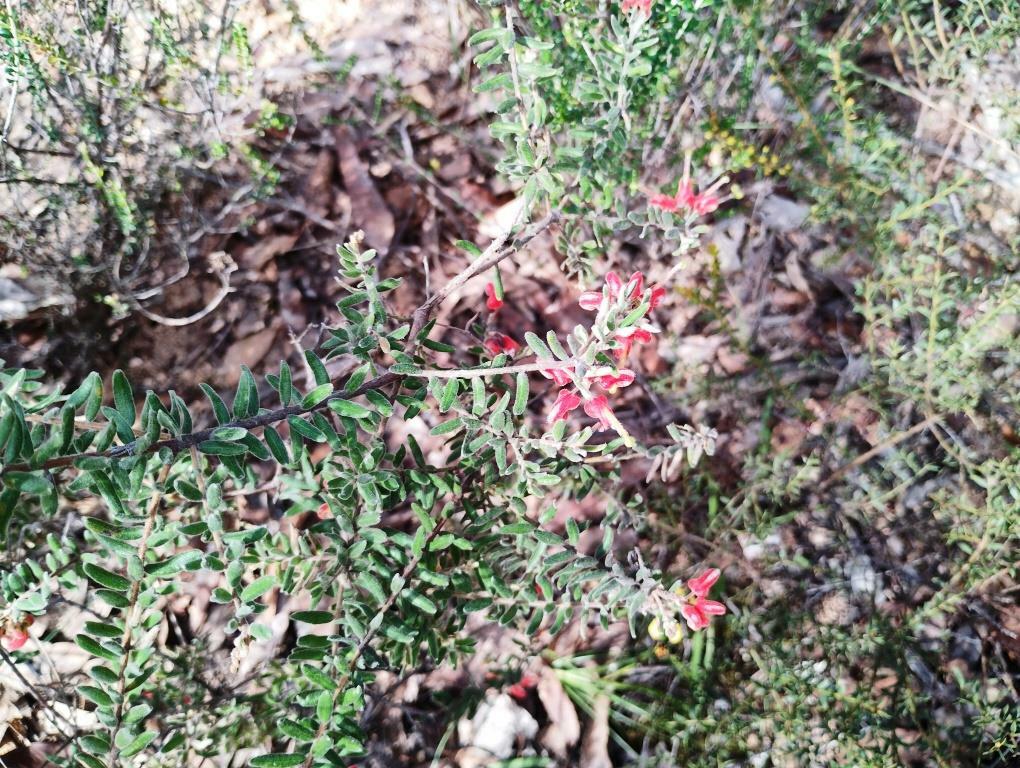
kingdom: Plantae
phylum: Tracheophyta
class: Magnoliopsida
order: Proteales
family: Proteaceae
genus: Grevillea
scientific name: Grevillea alpina
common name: Catclaws grevillea
